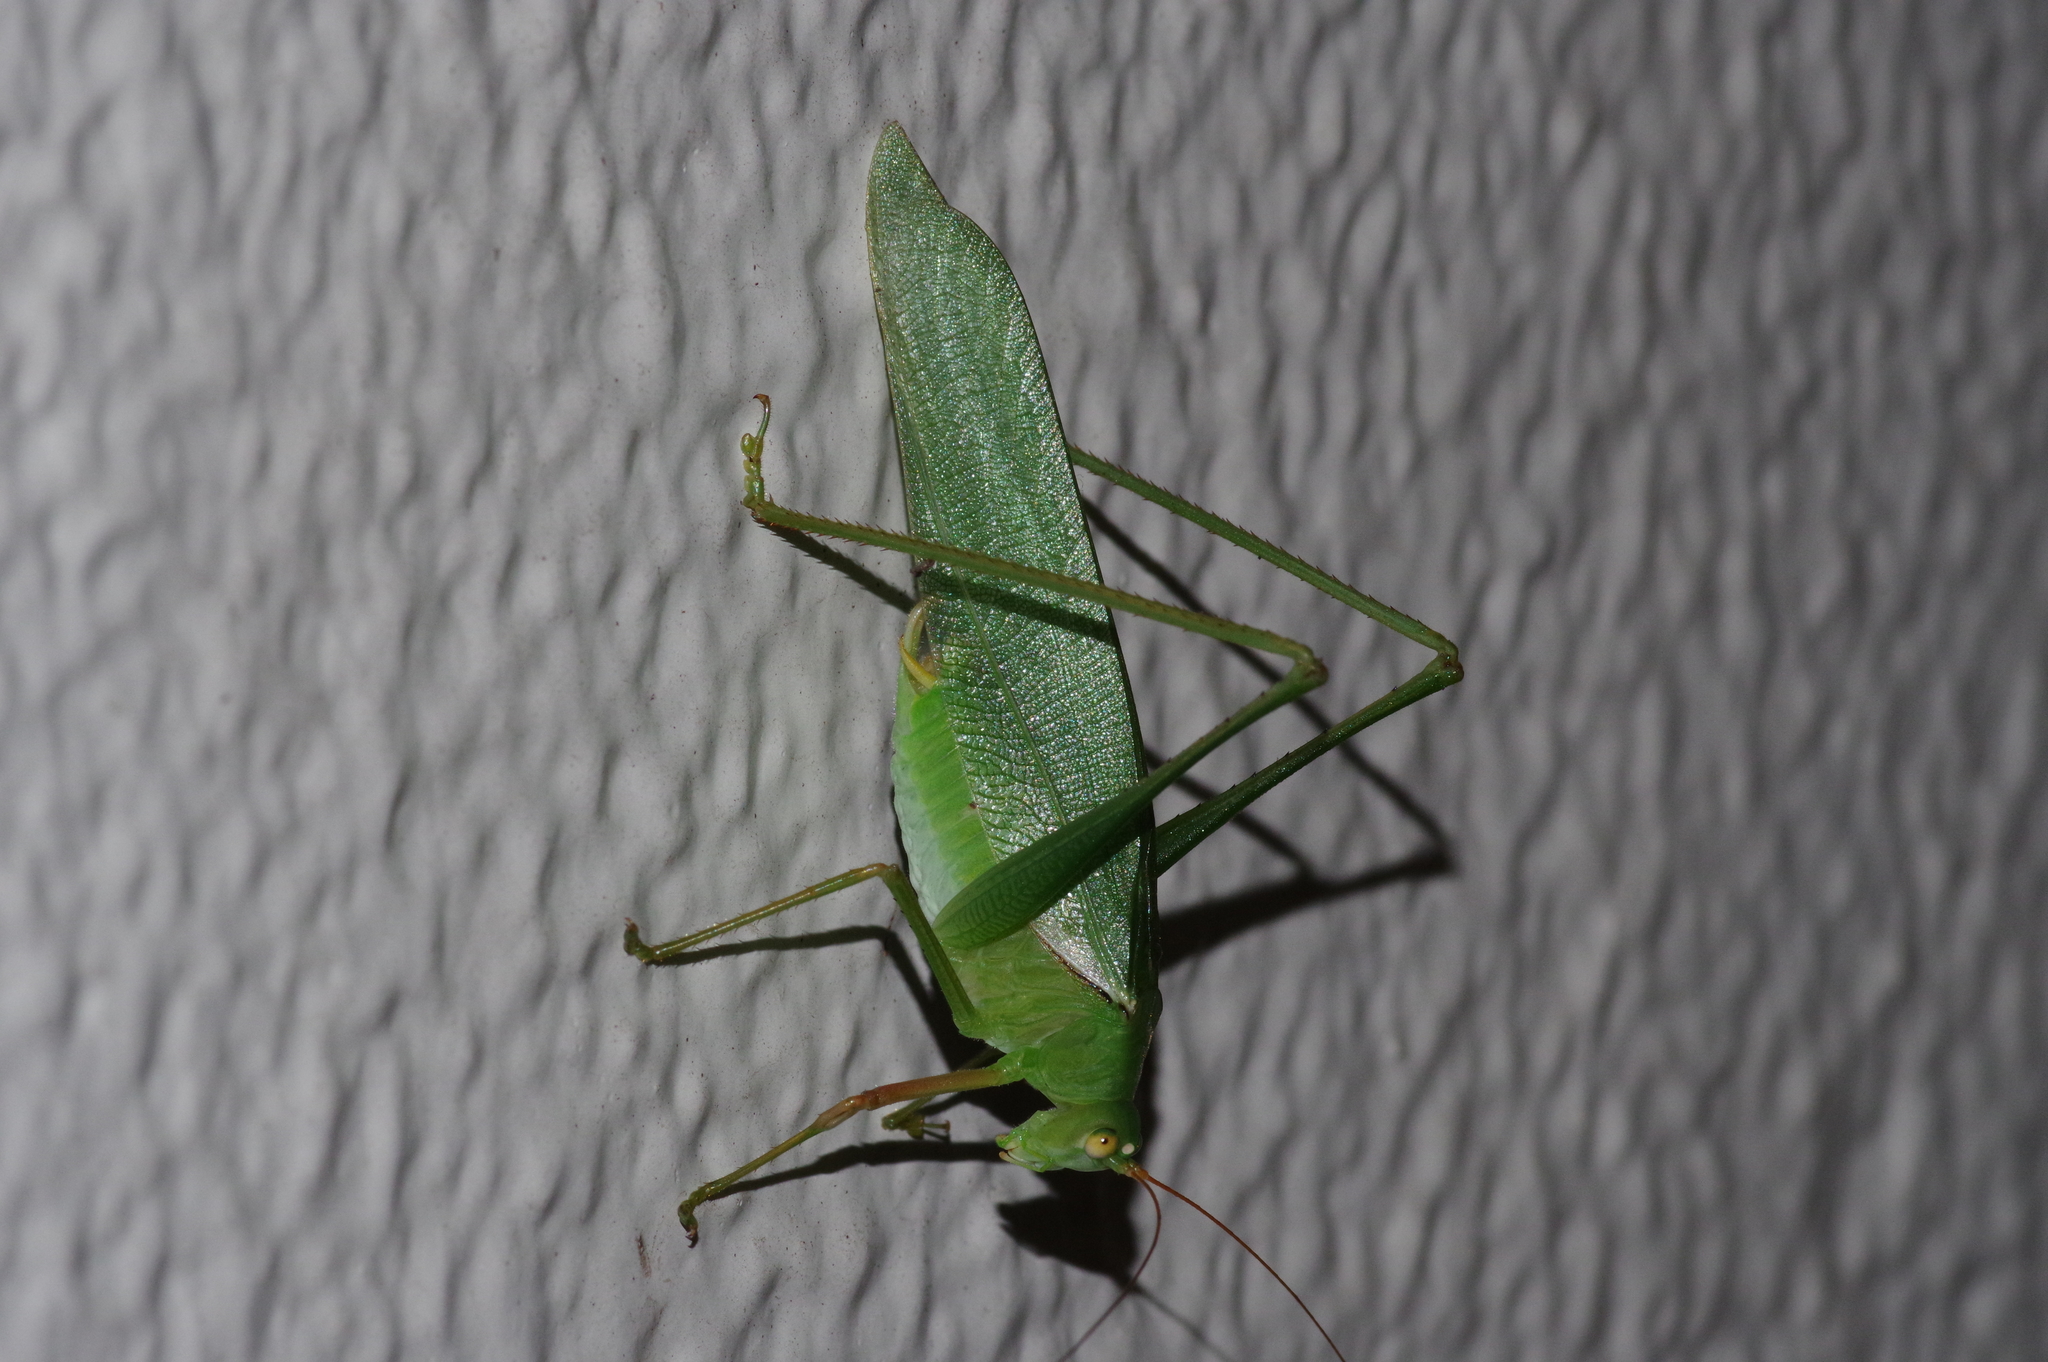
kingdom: Animalia
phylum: Arthropoda
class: Insecta
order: Orthoptera
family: Tettigoniidae
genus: Sinochlora
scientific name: Sinochlora longifissa
